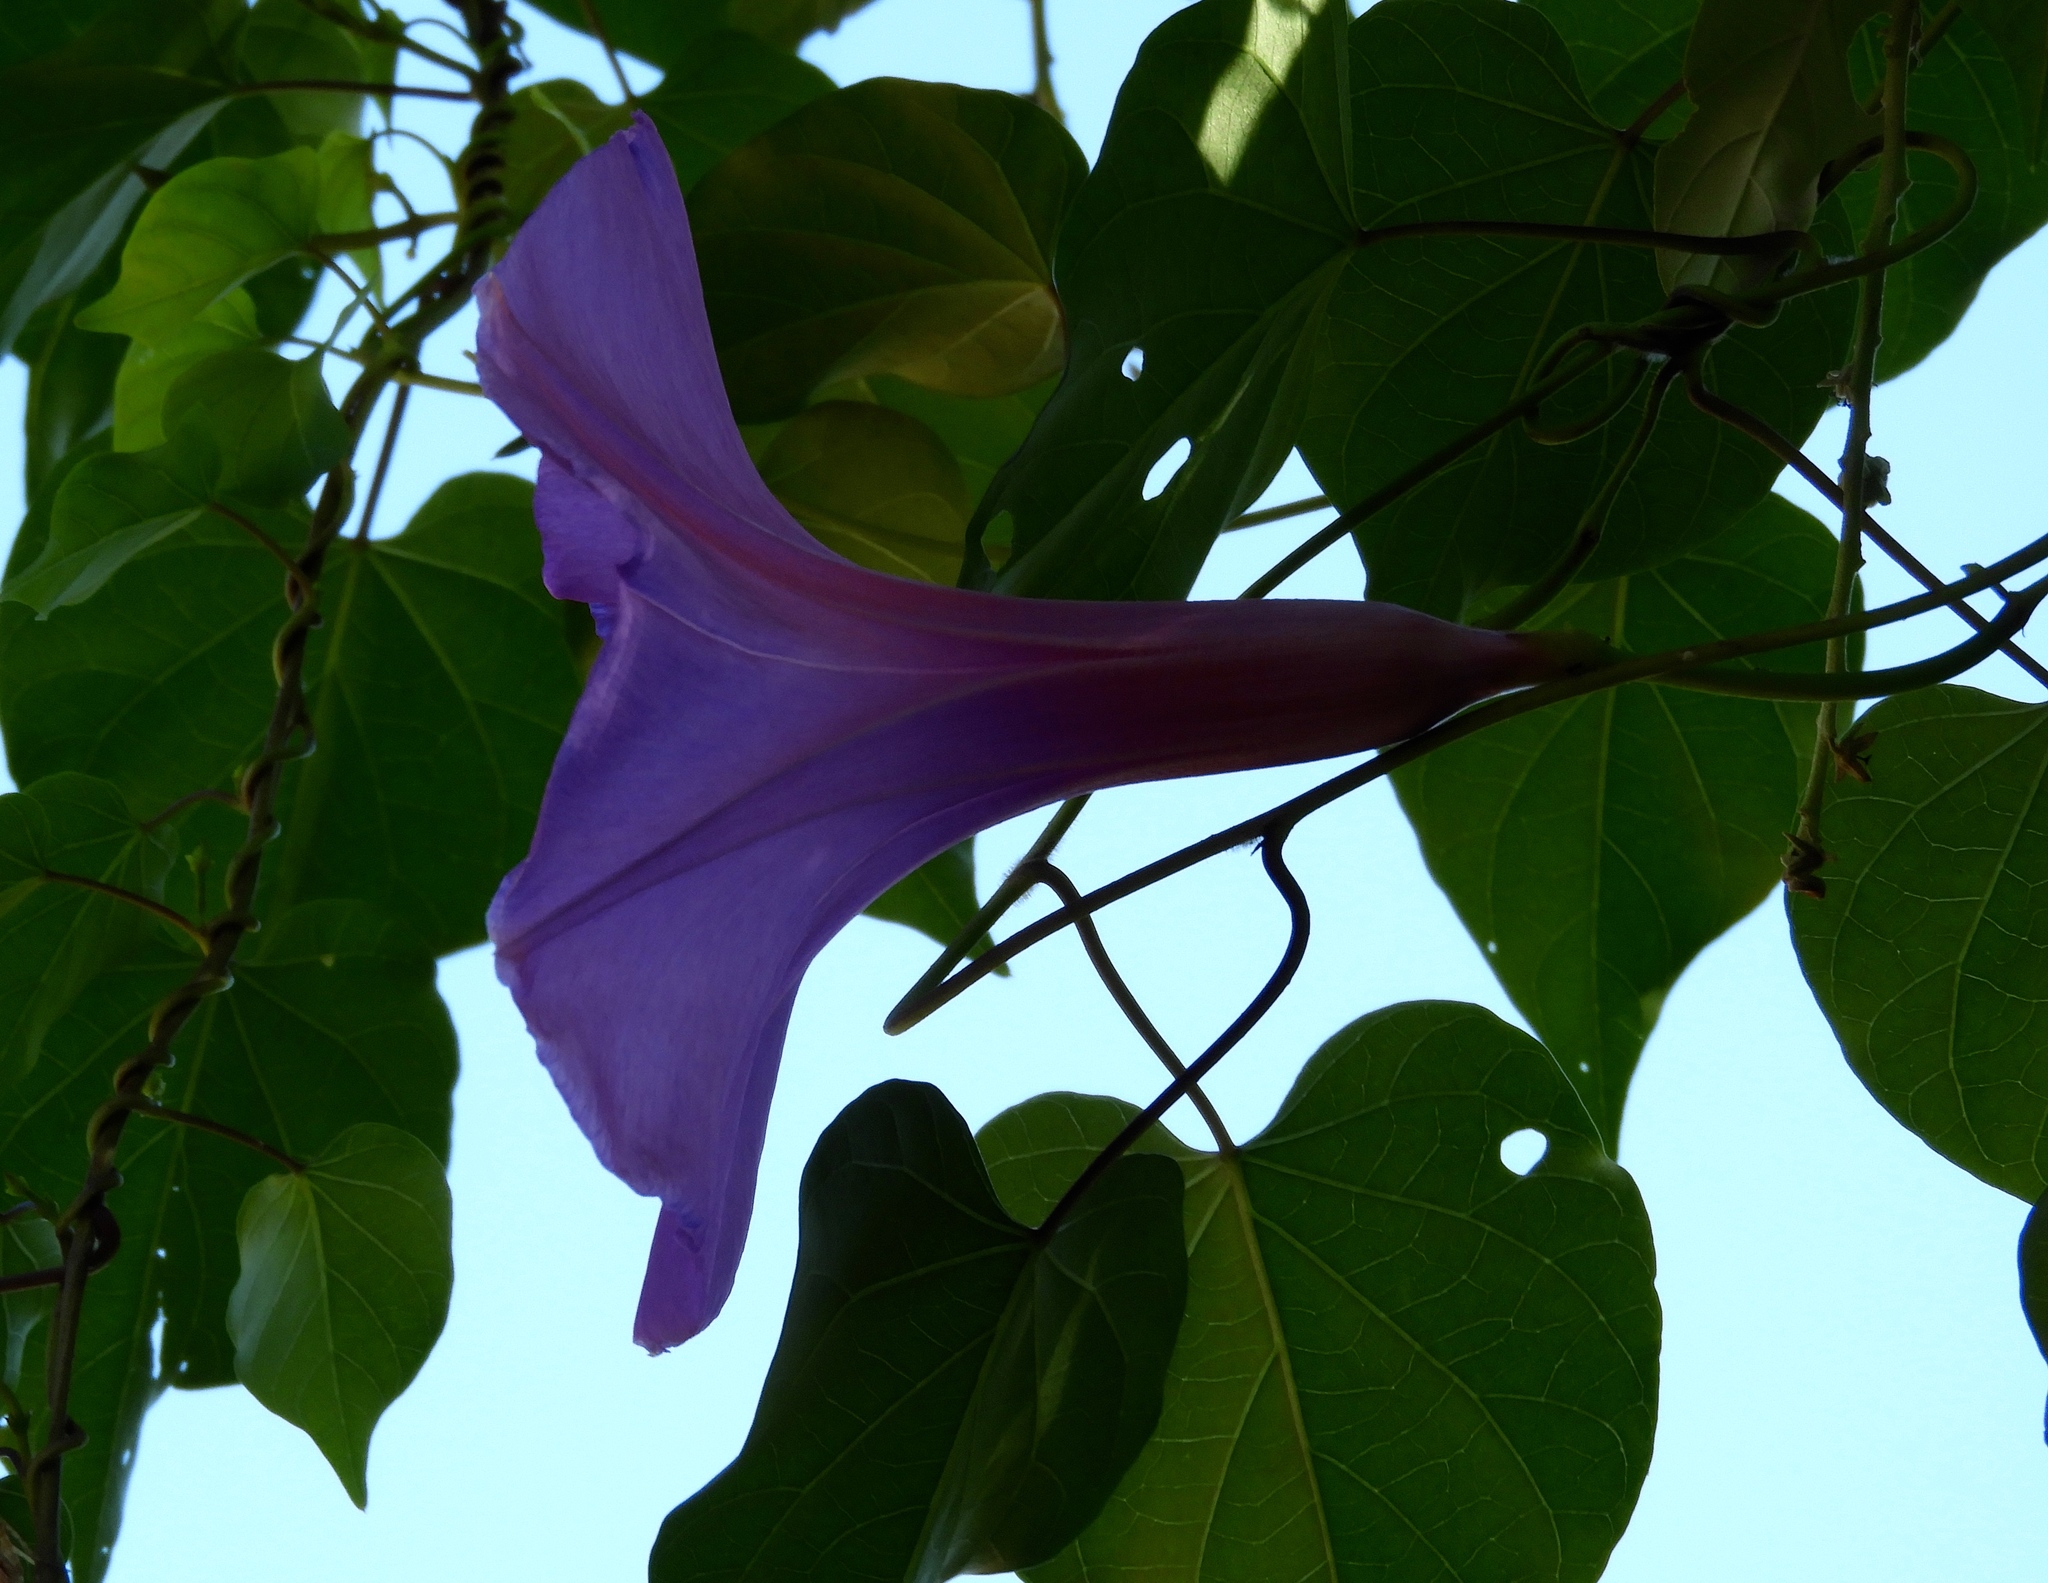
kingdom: Plantae
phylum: Tracheophyta
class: Magnoliopsida
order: Solanales
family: Convolvulaceae
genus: Ipomoea
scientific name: Ipomoea pedicellaris
